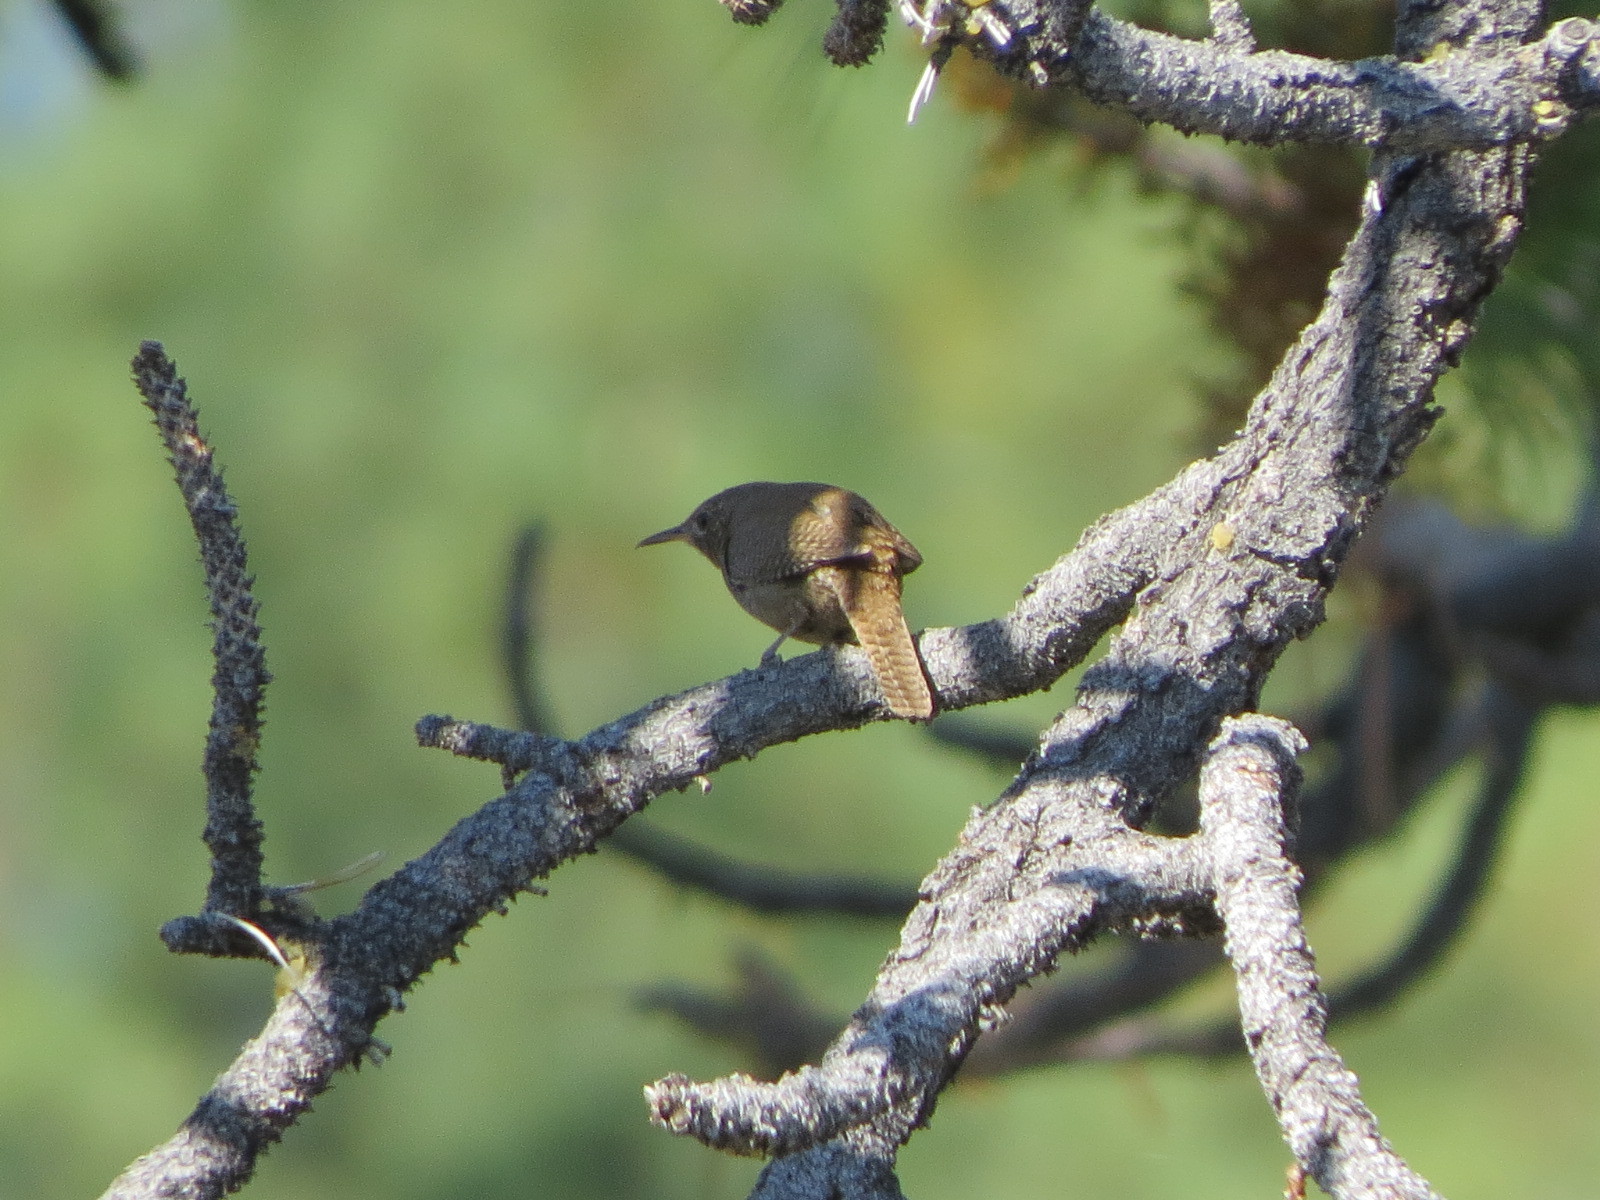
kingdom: Animalia
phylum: Chordata
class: Aves
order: Passeriformes
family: Troglodytidae
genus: Troglodytes
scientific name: Troglodytes aedon
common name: House wren
